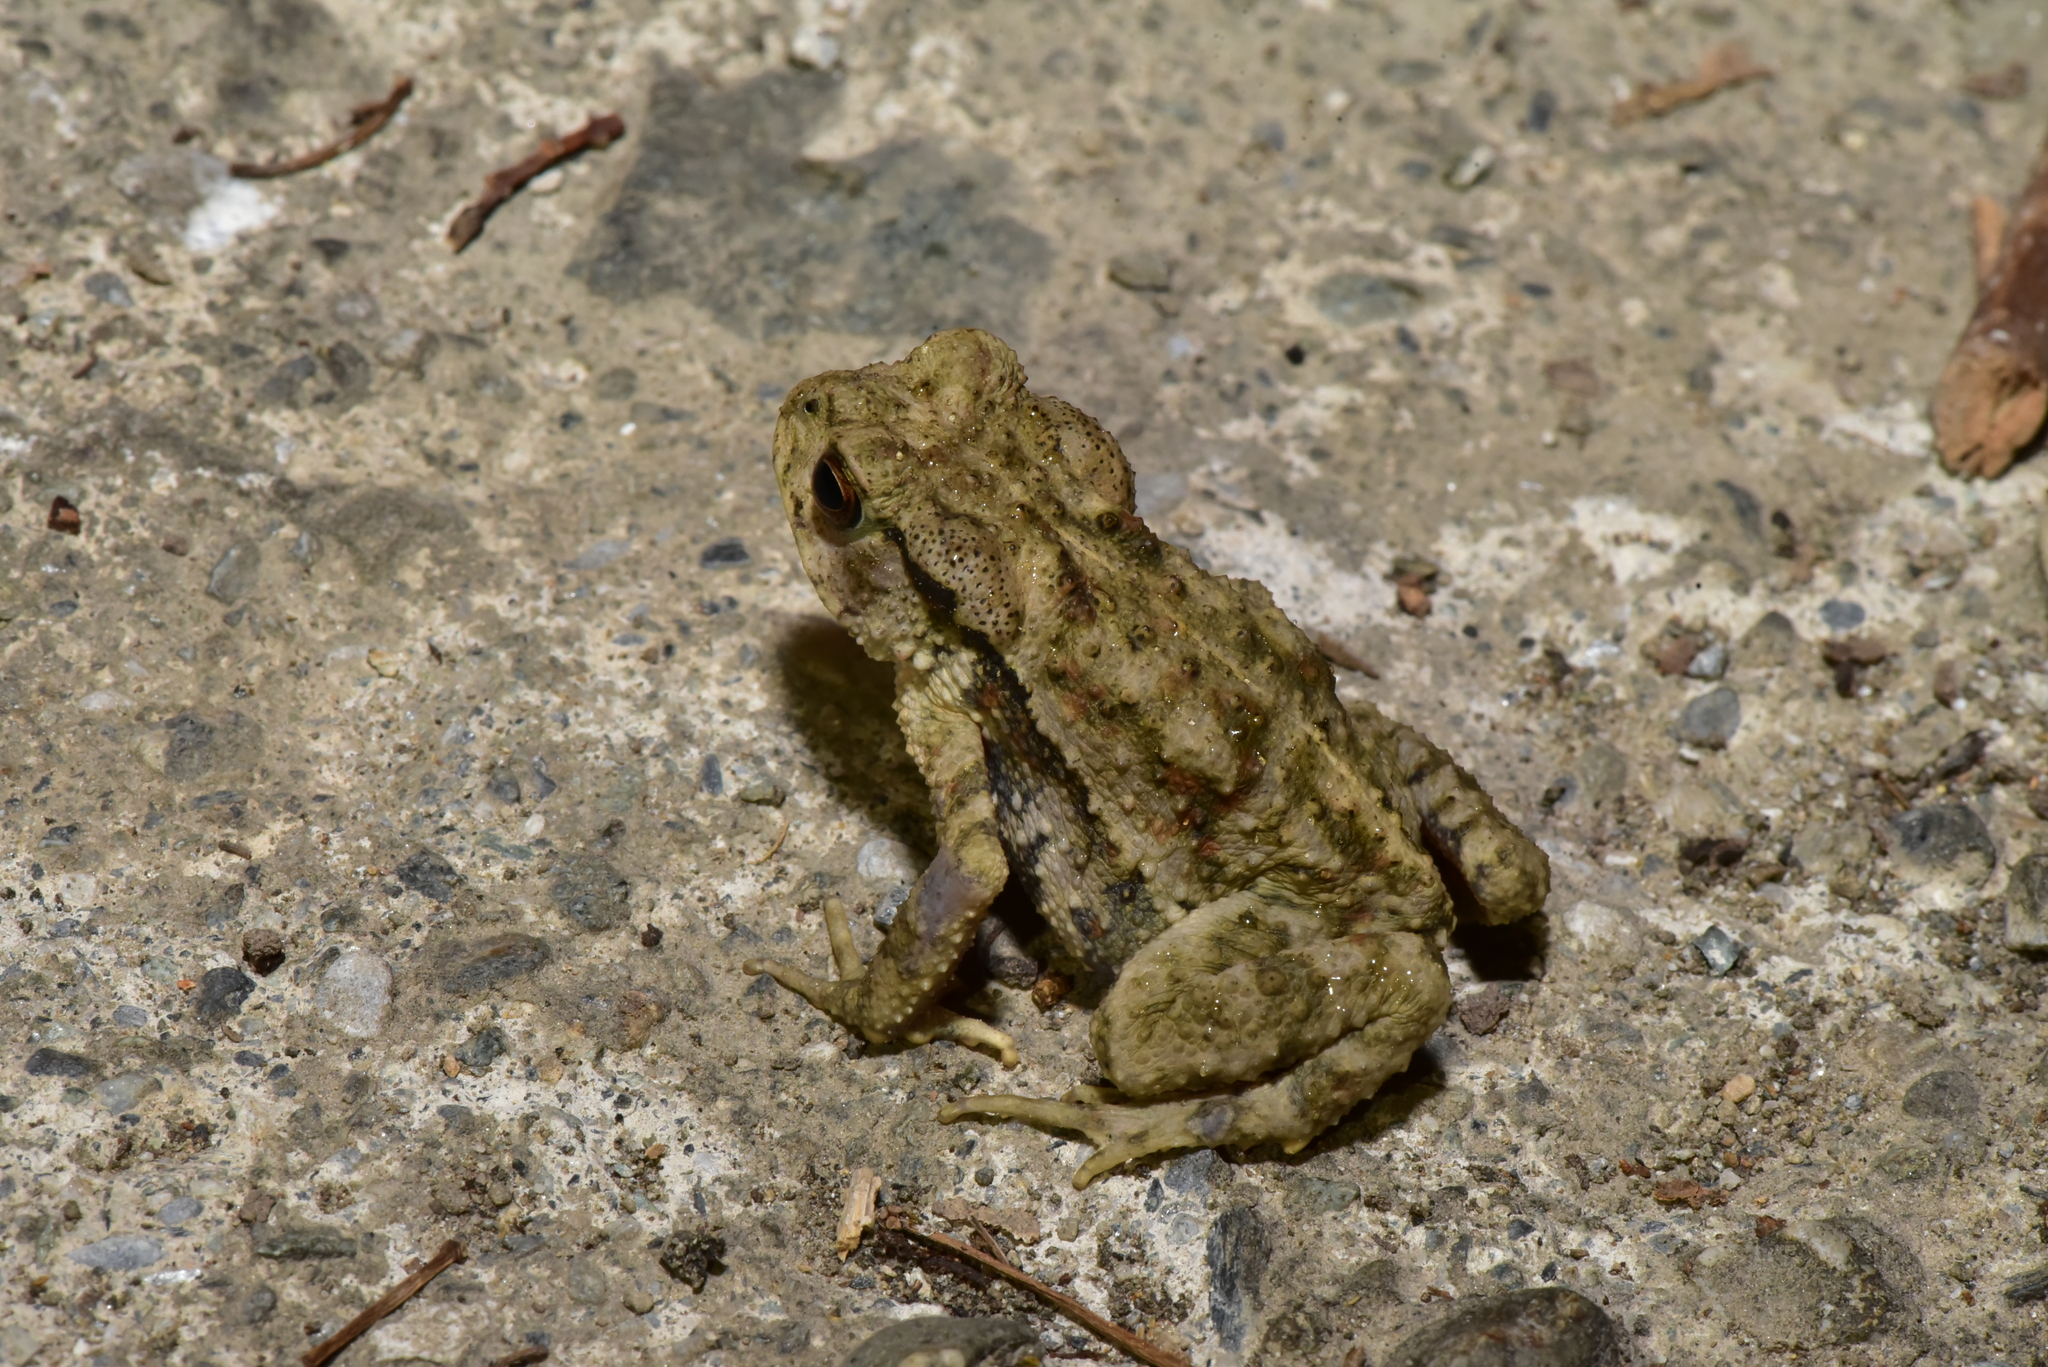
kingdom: Animalia
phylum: Chordata
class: Amphibia
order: Anura
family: Bufonidae
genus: Bufo
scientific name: Bufo bankorensis
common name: Bankor toad
